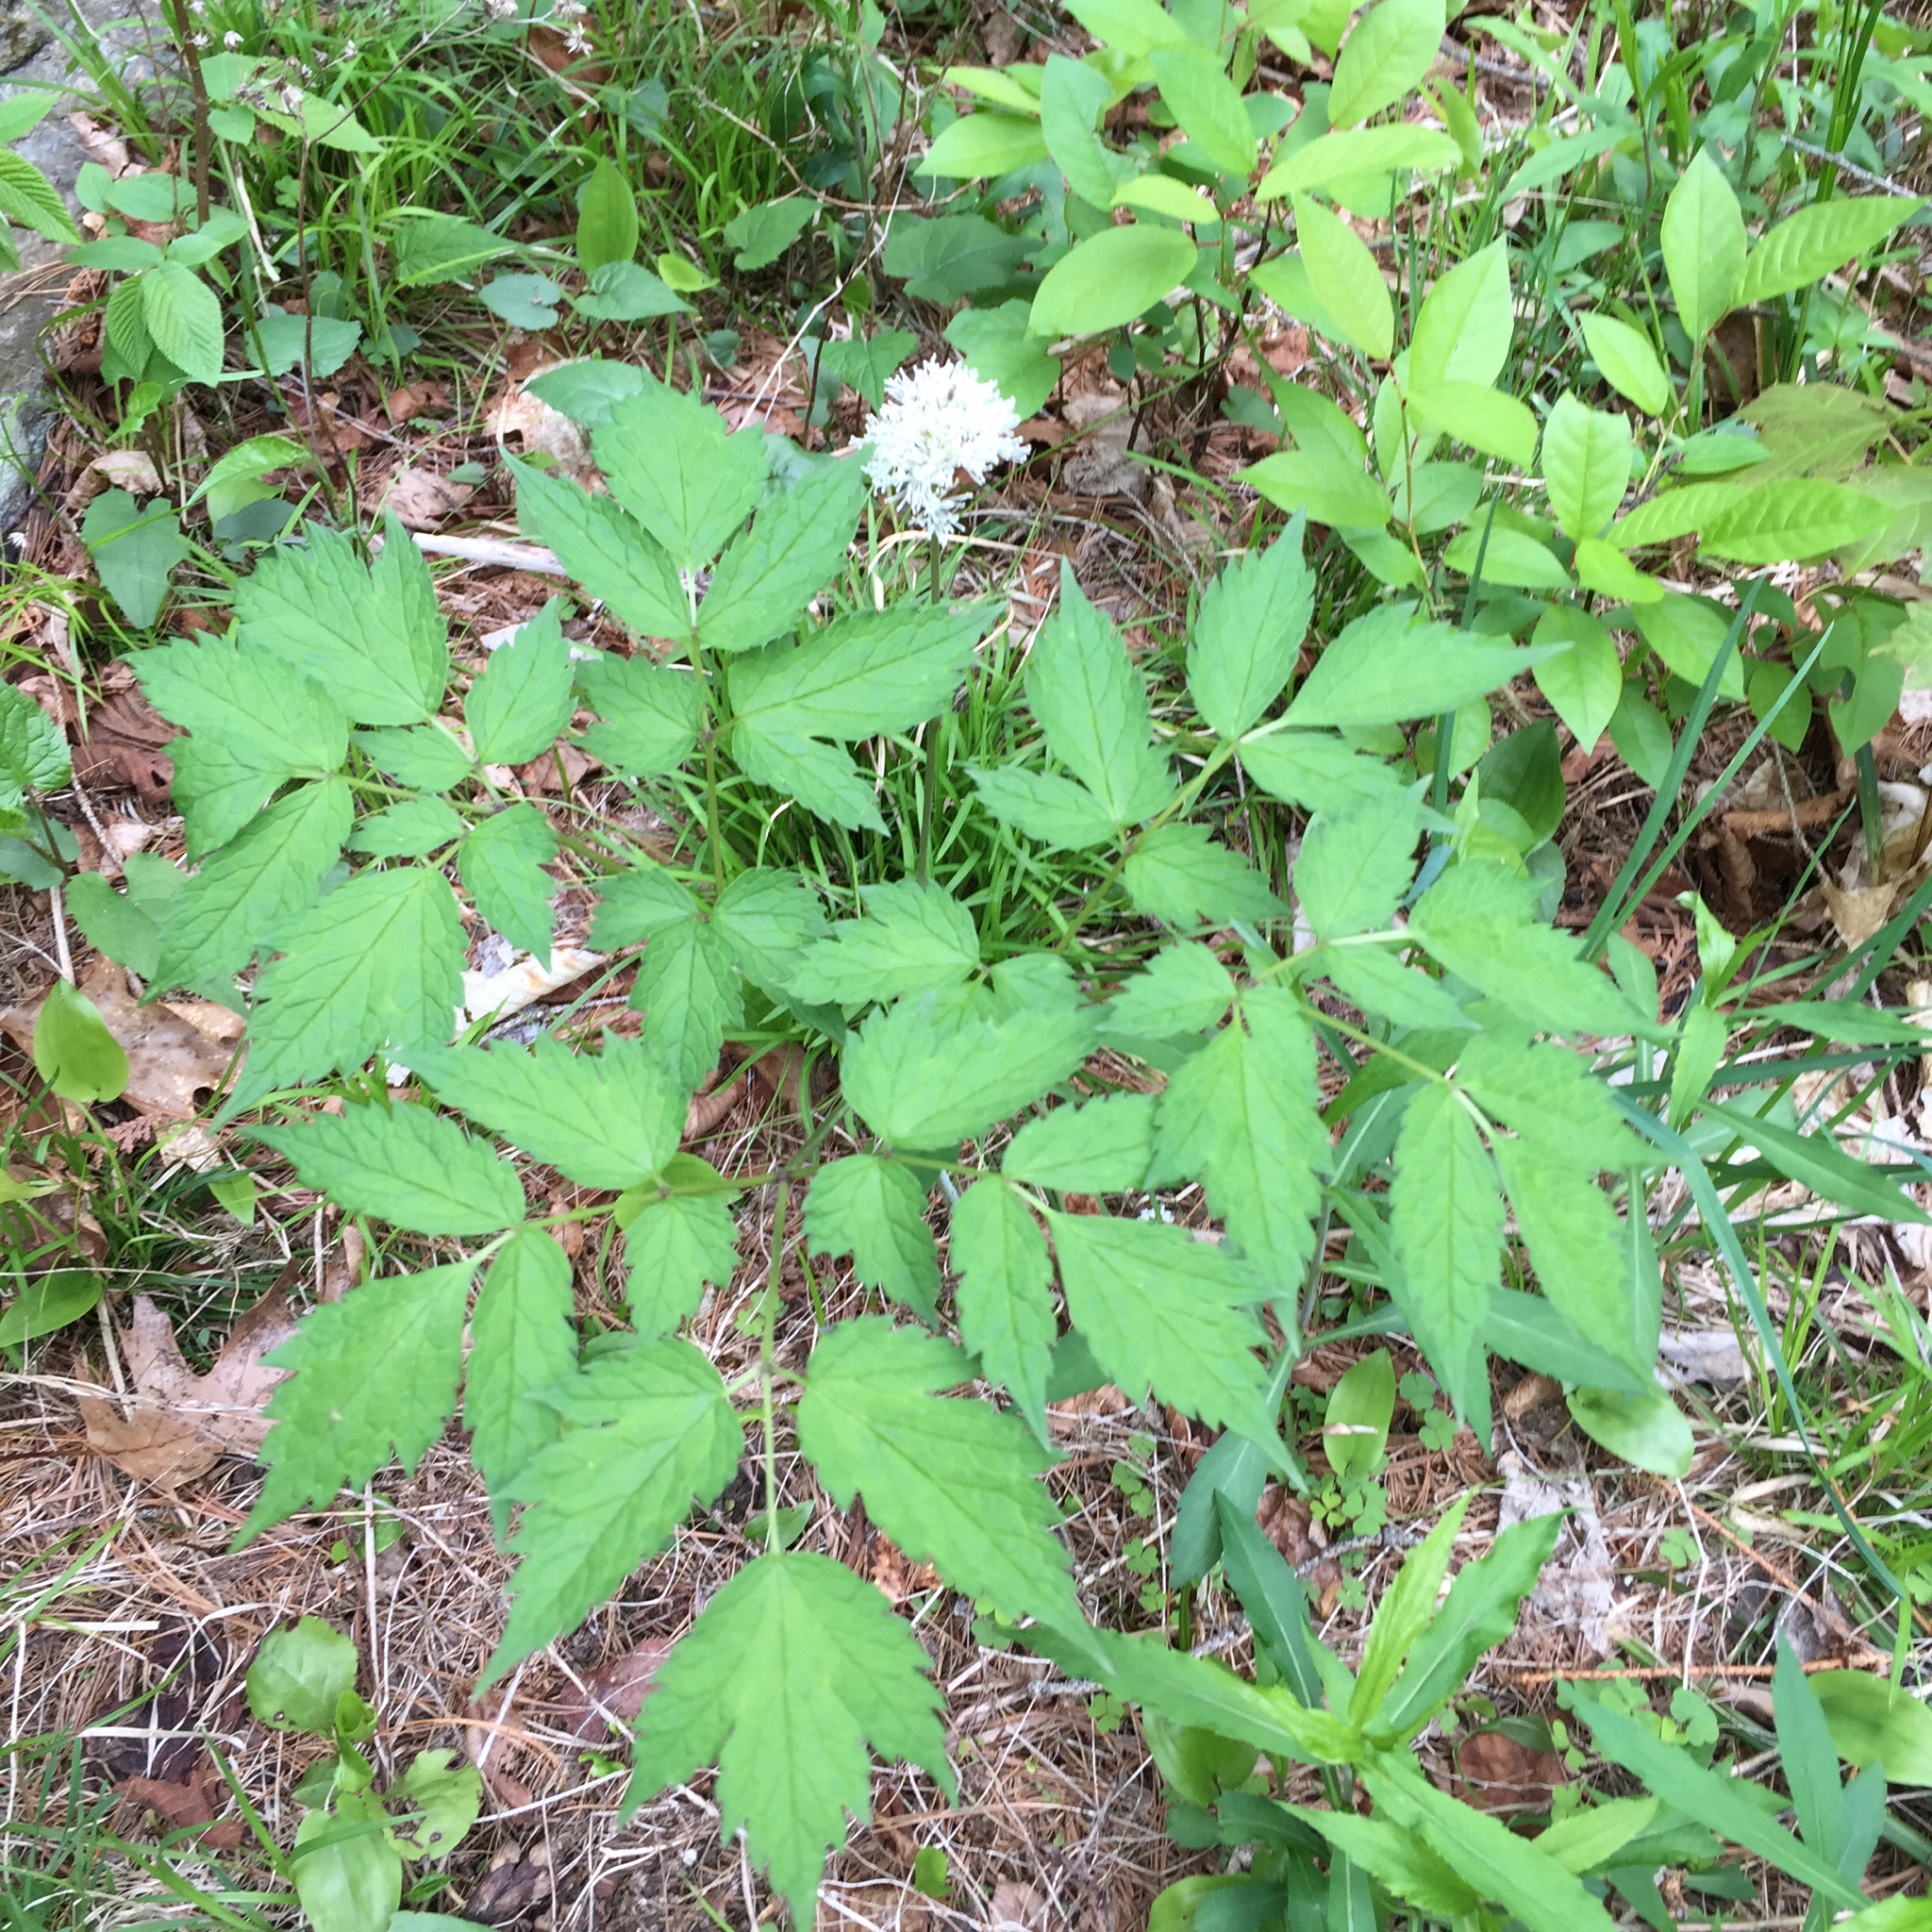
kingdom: Plantae
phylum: Tracheophyta
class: Magnoliopsida
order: Ranunculales
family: Ranunculaceae
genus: Actaea
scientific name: Actaea rubra
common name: Red baneberry
